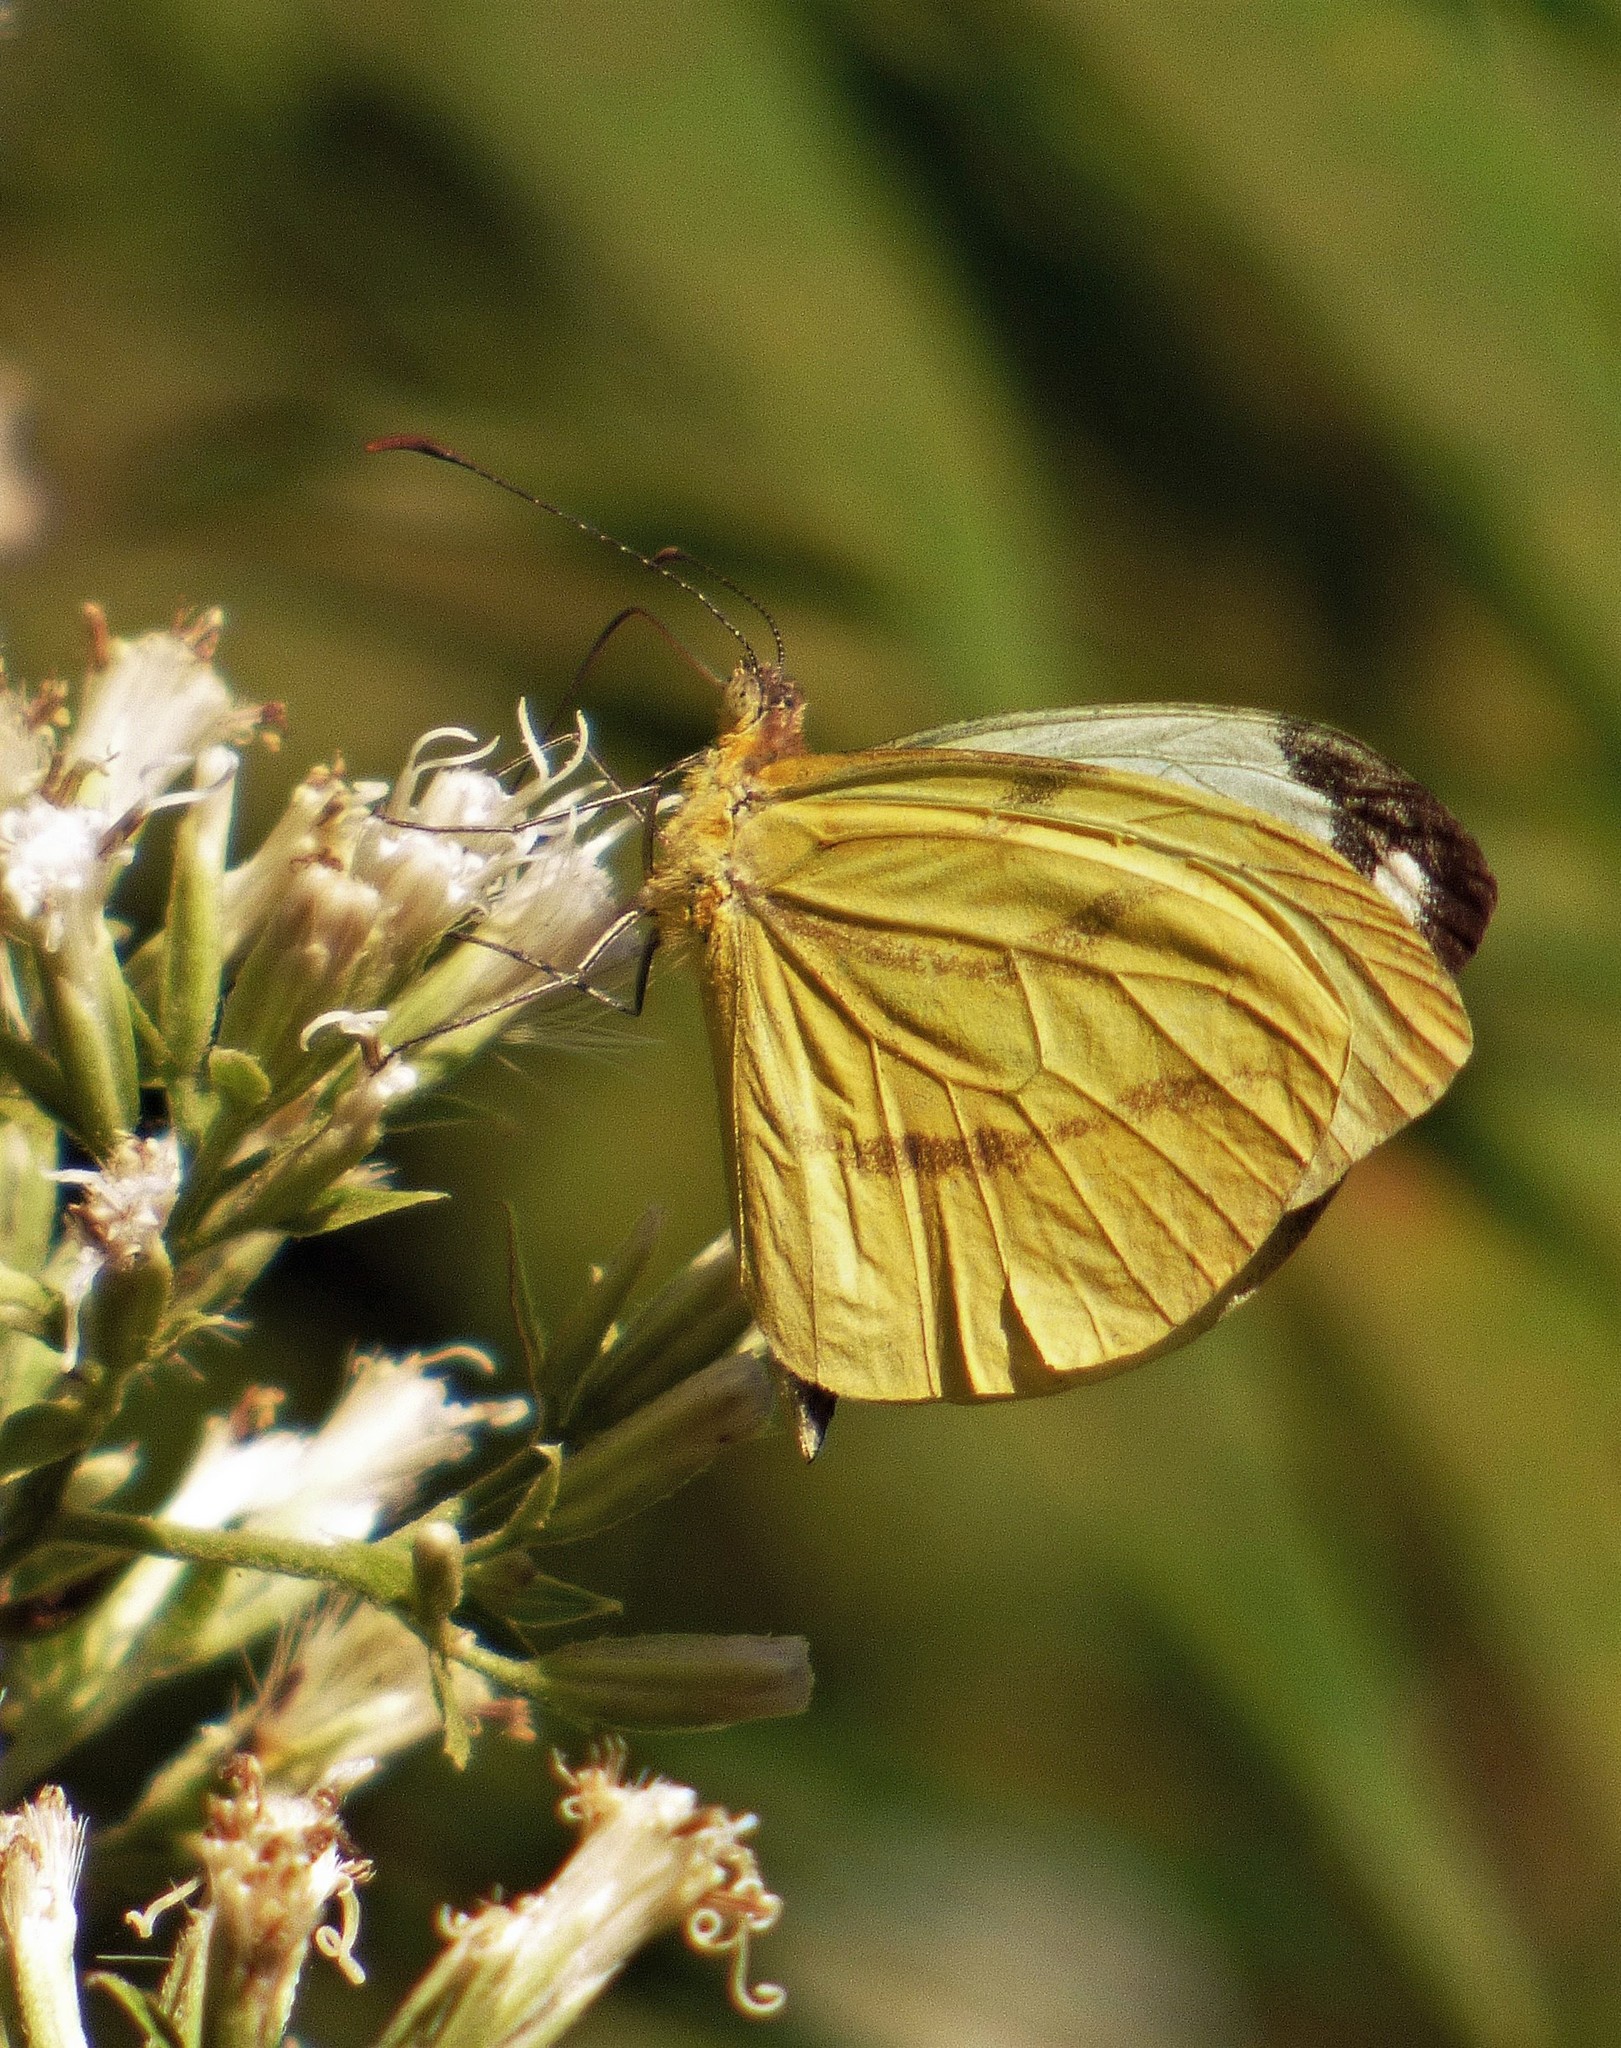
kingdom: Animalia
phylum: Arthropoda
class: Insecta
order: Lepidoptera
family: Pieridae
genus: Enantia
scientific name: Enantia lina
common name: White mimic-white
